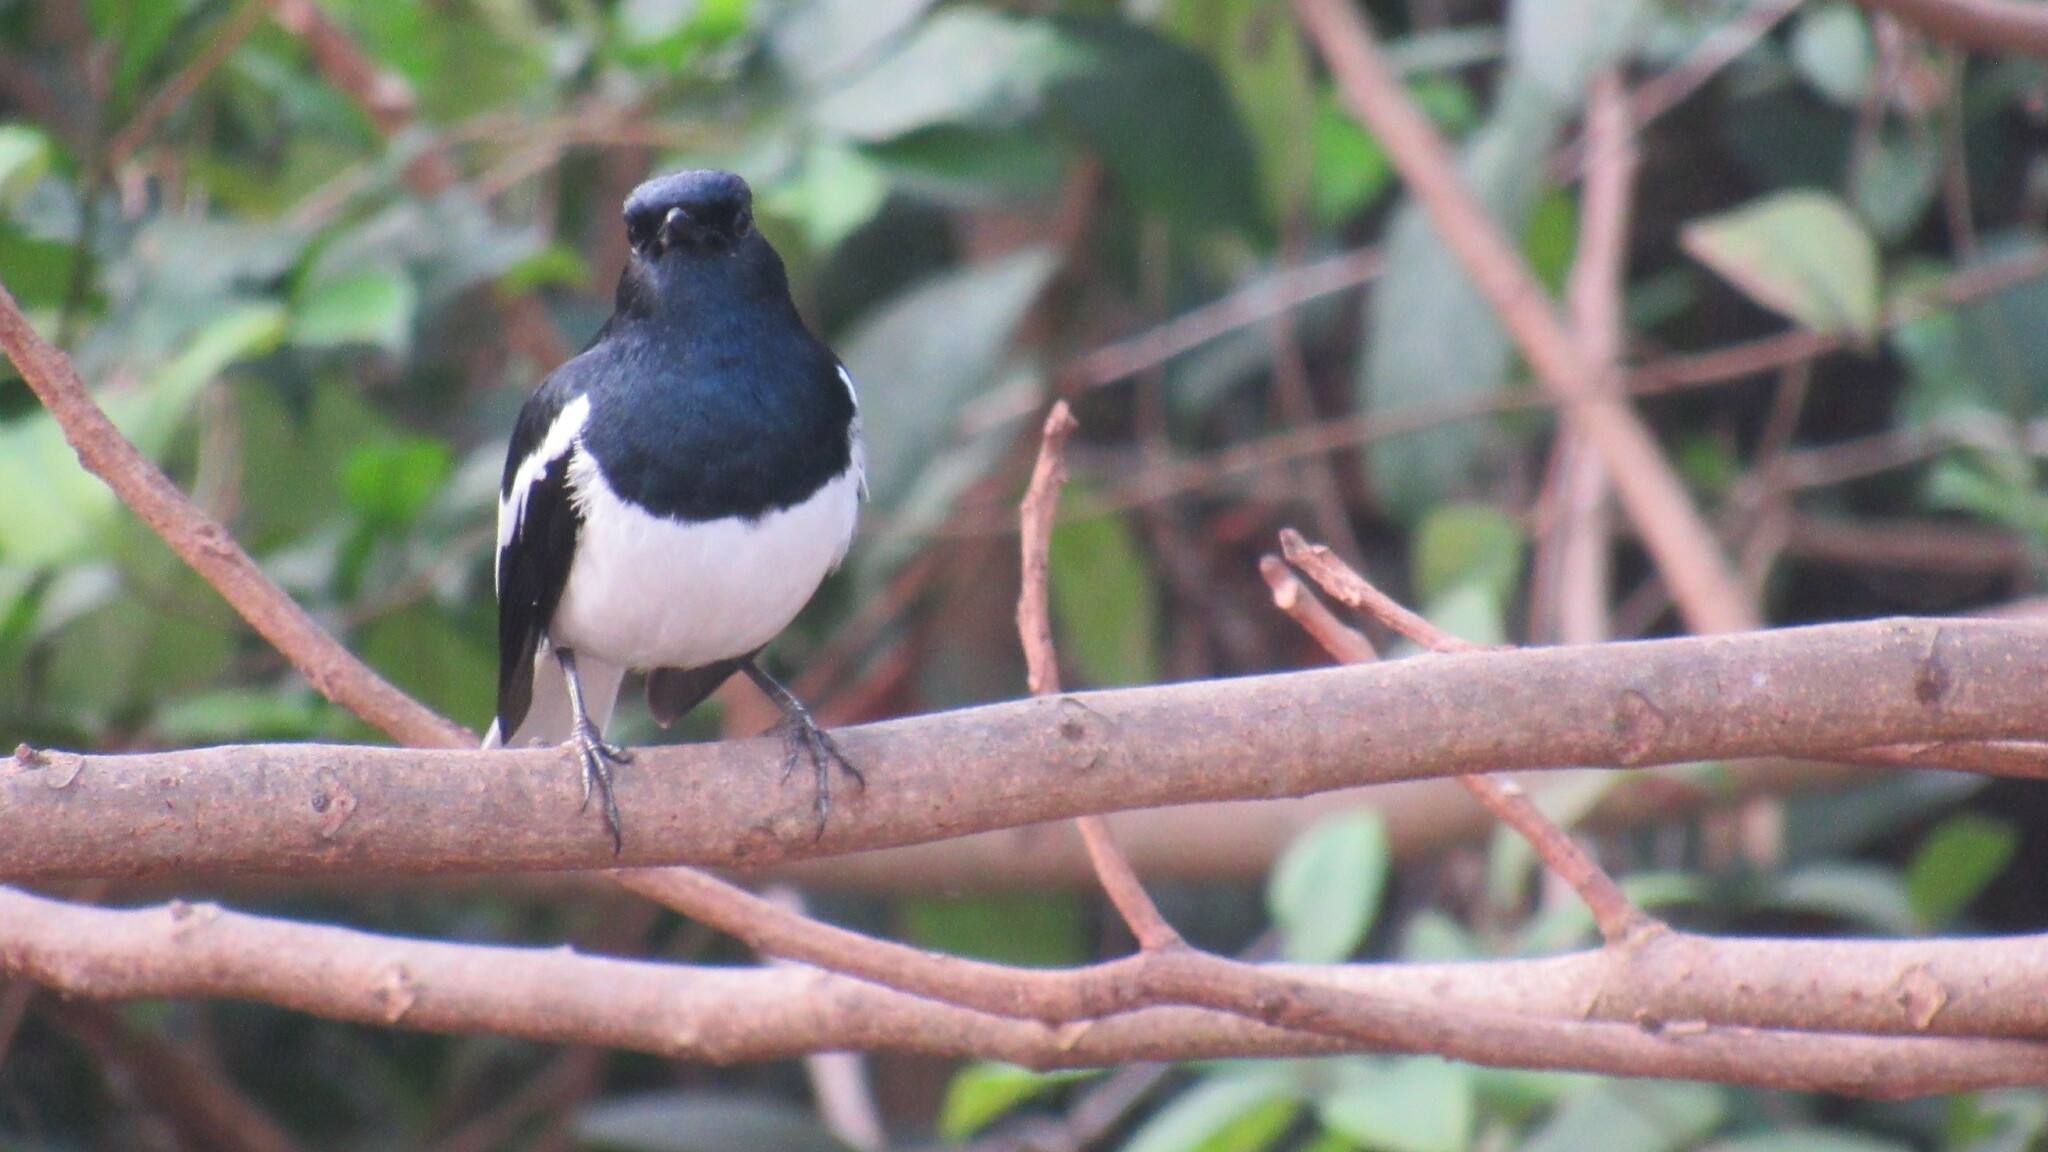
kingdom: Animalia
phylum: Chordata
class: Aves
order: Passeriformes
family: Muscicapidae
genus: Copsychus
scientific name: Copsychus saularis
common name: Oriental magpie-robin
